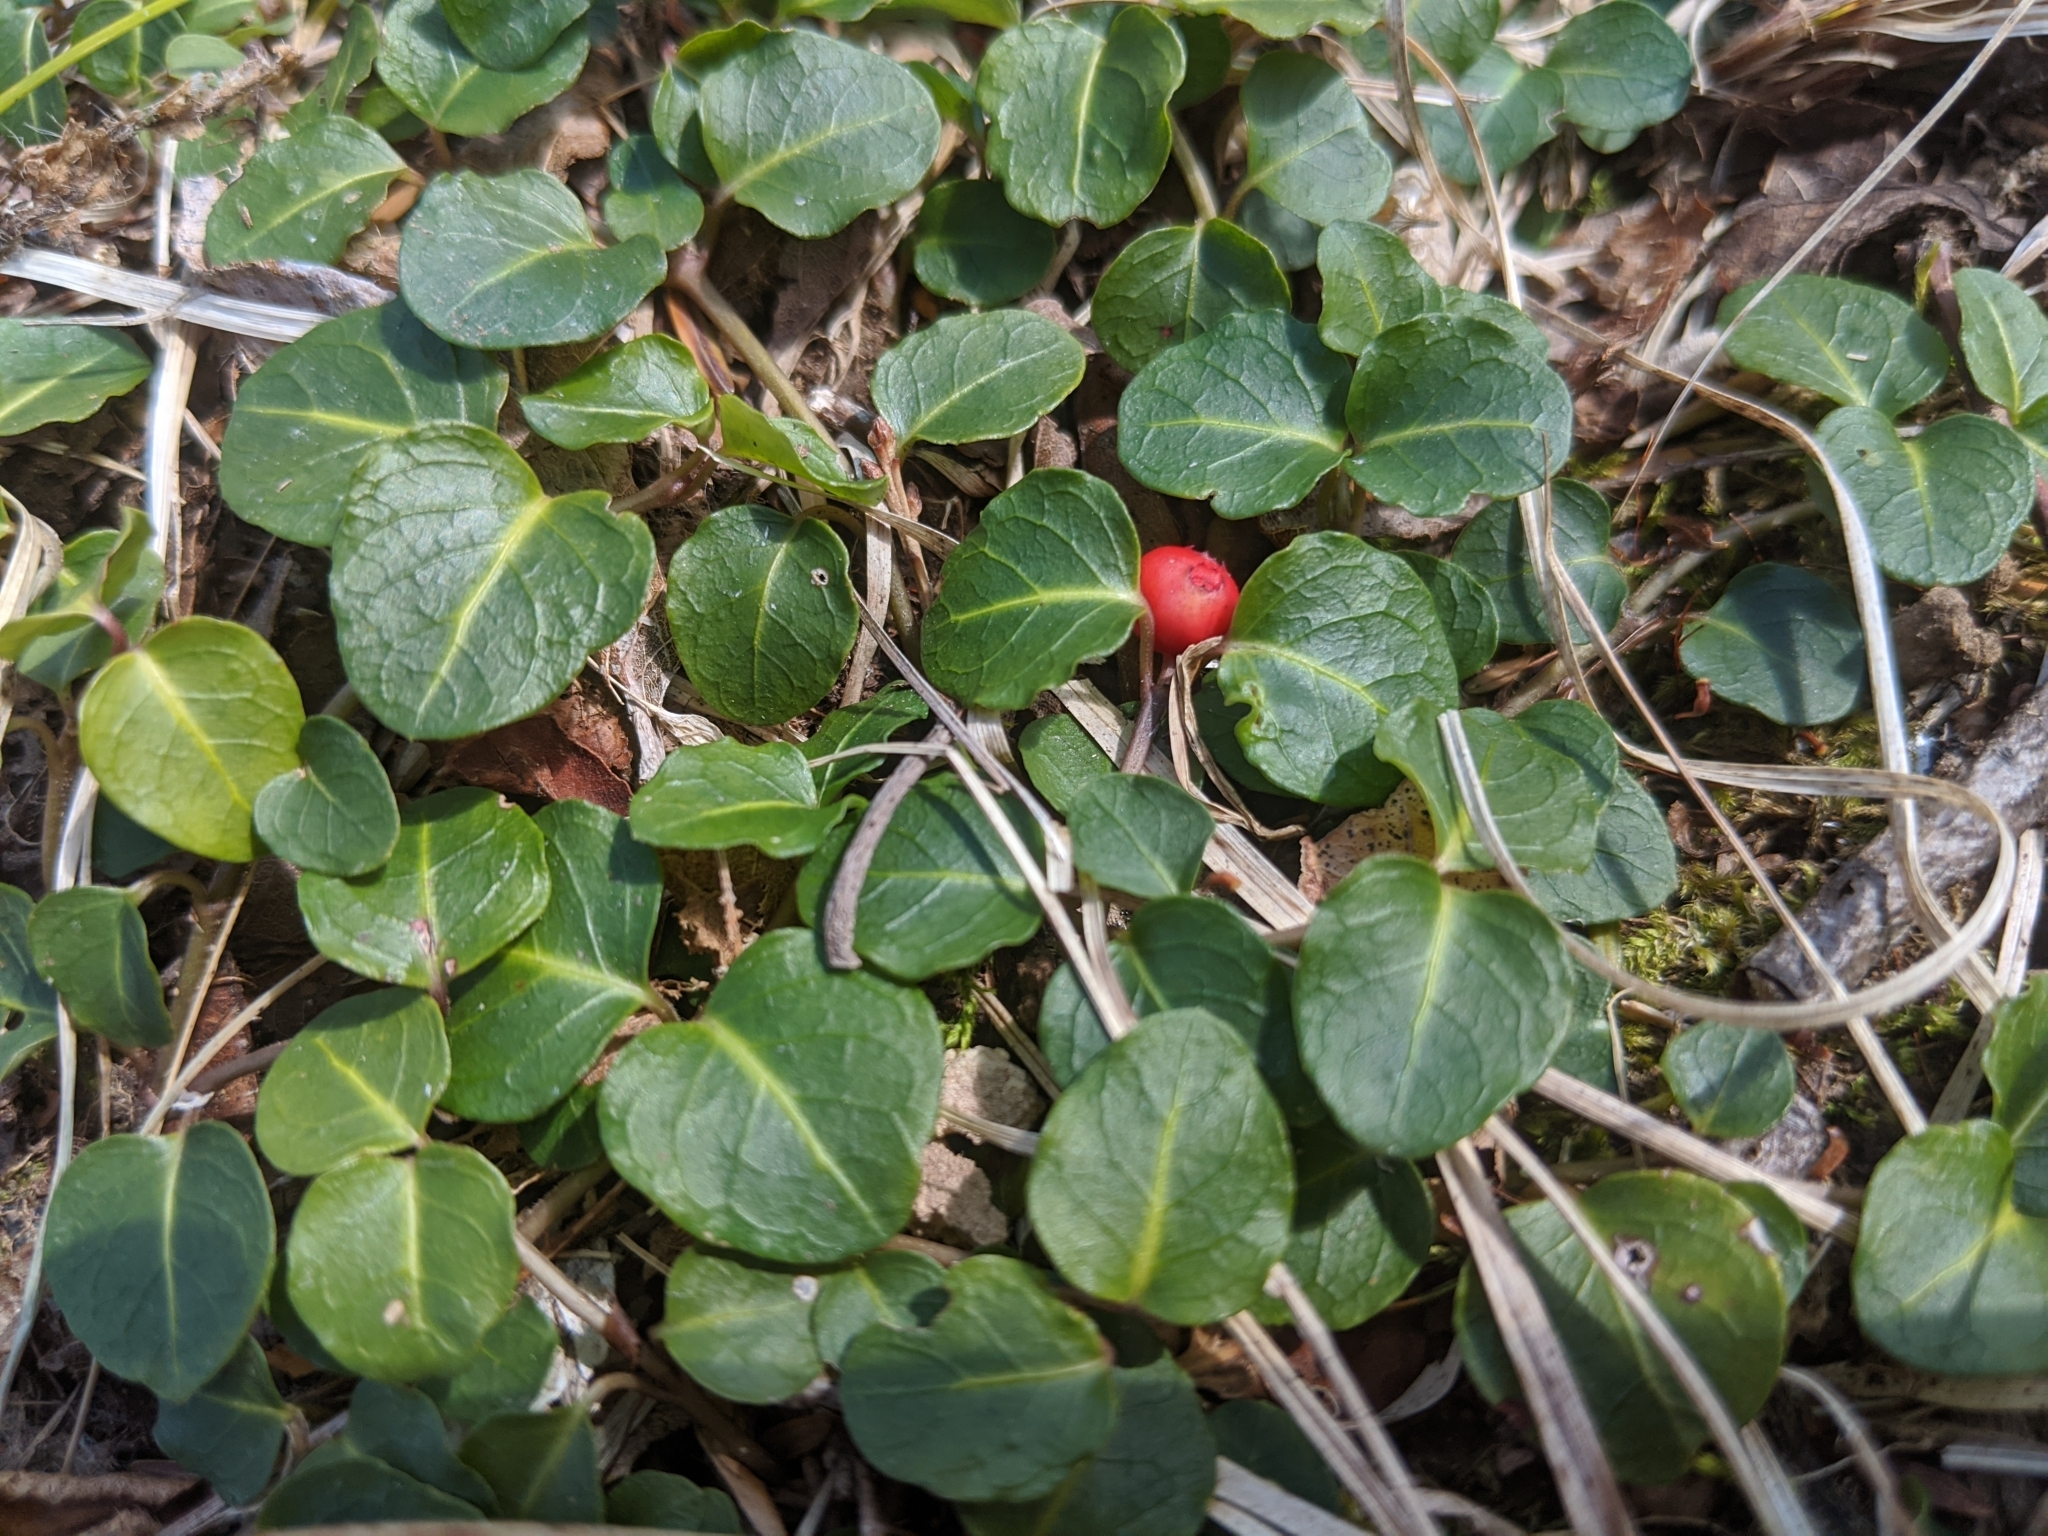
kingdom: Plantae
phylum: Tracheophyta
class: Magnoliopsida
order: Gentianales
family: Rubiaceae
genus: Mitchella
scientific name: Mitchella repens
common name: Partridge-berry
